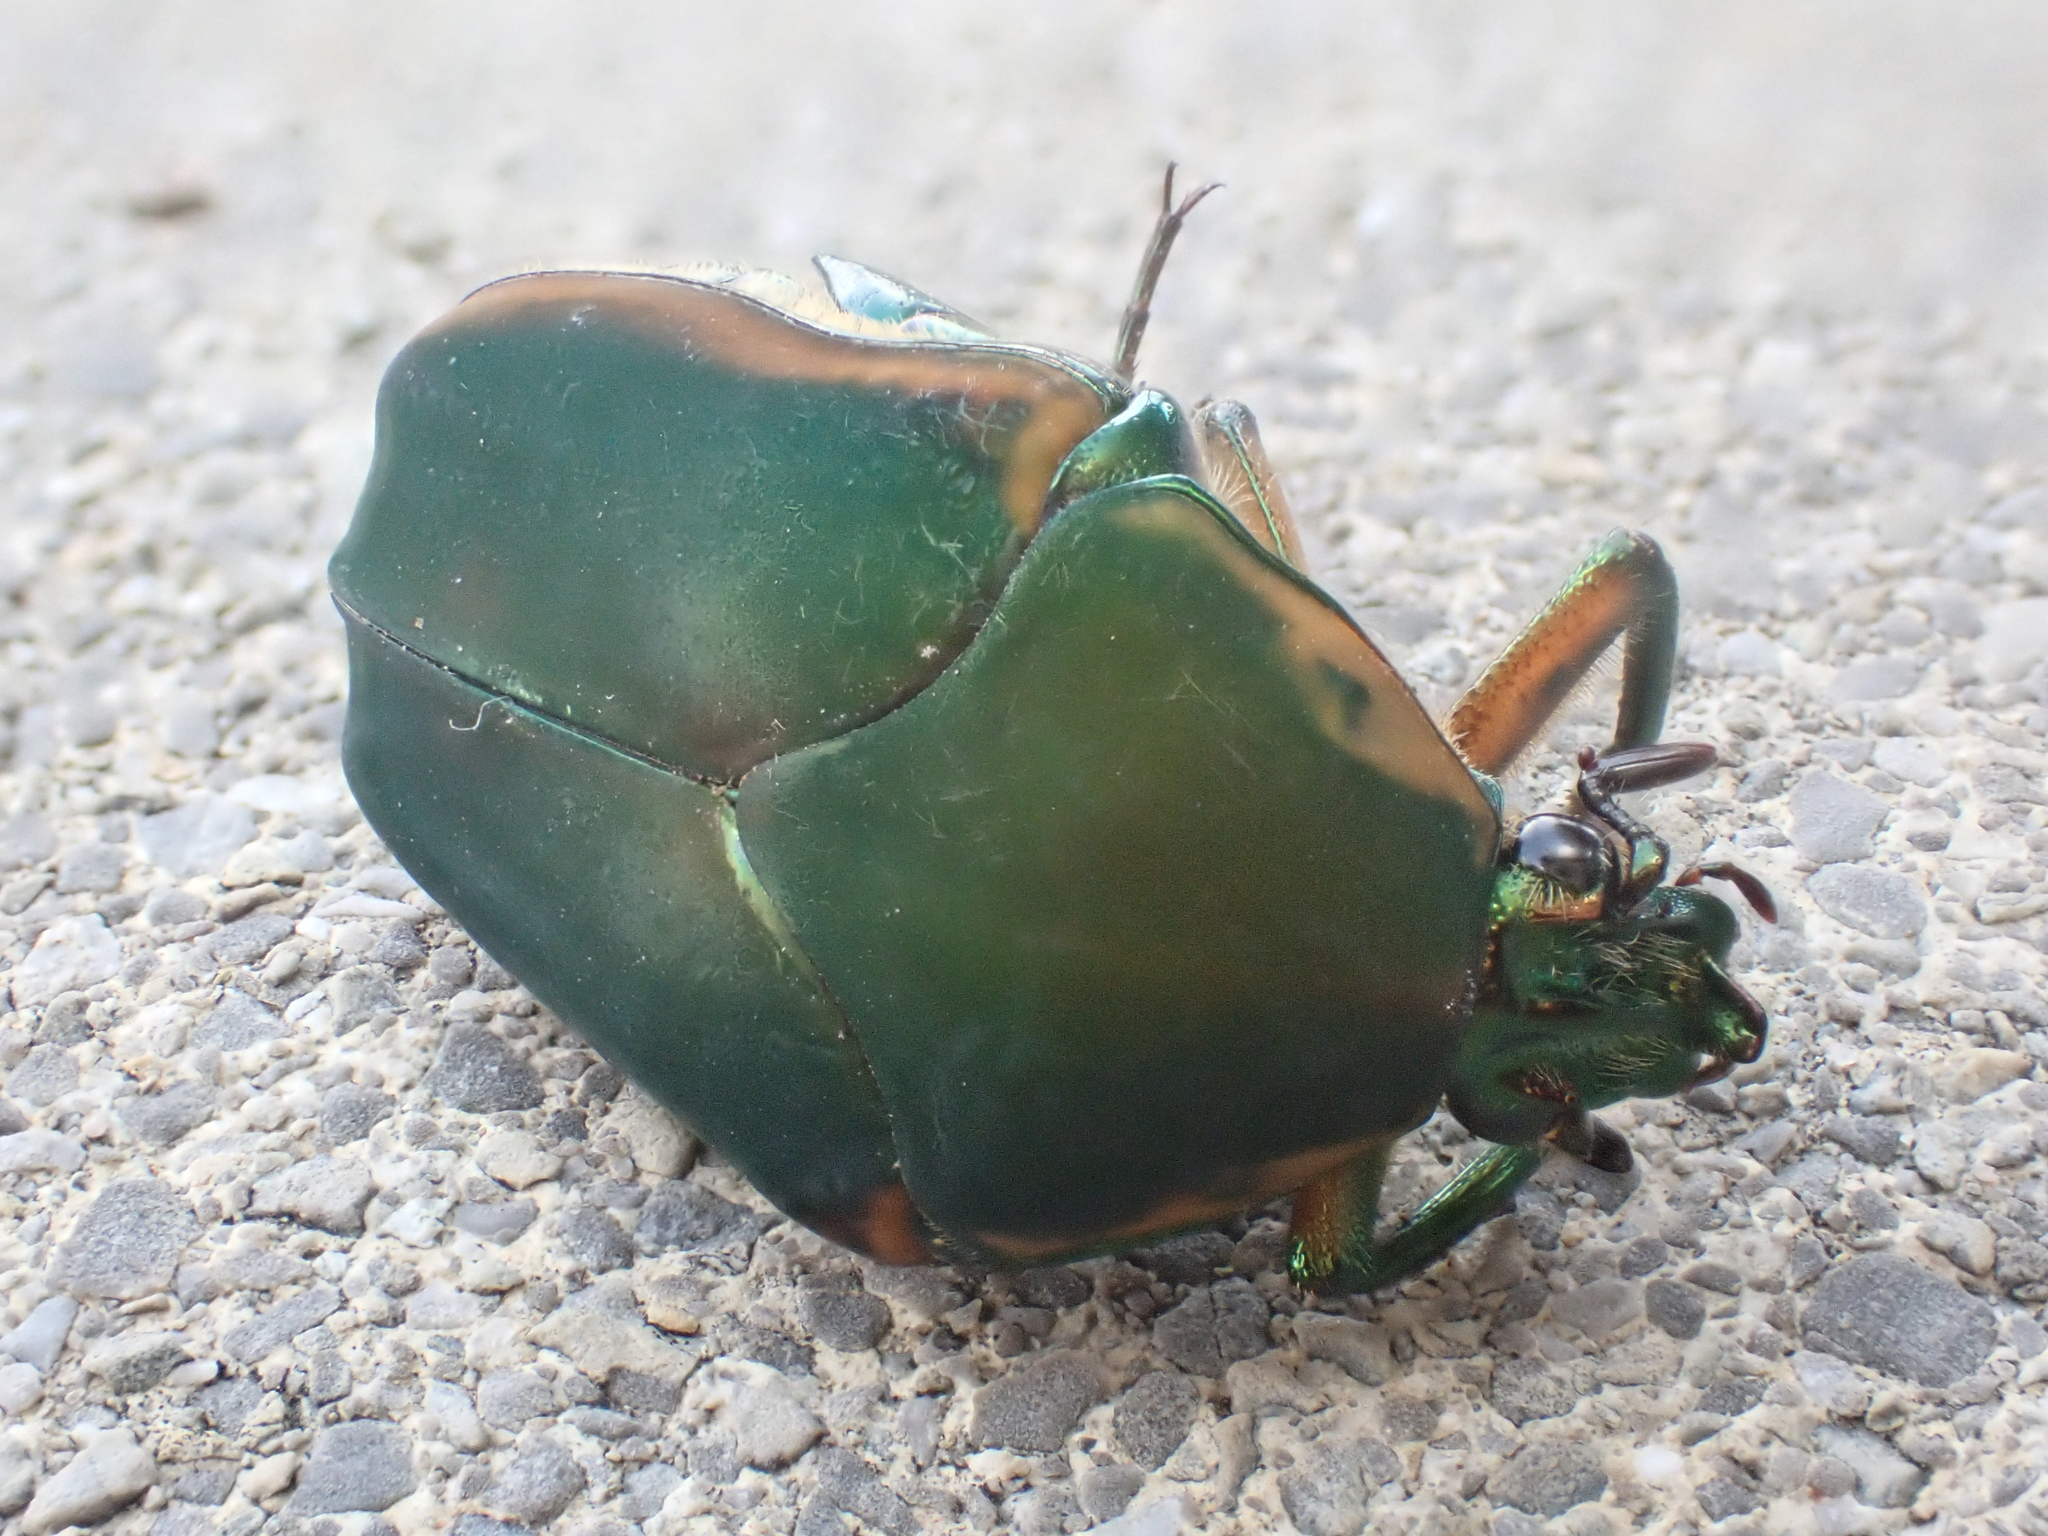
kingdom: Animalia
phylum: Arthropoda
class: Insecta
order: Coleoptera
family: Scarabaeidae
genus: Cotinis
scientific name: Cotinis nitida
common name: Common green june beetle
